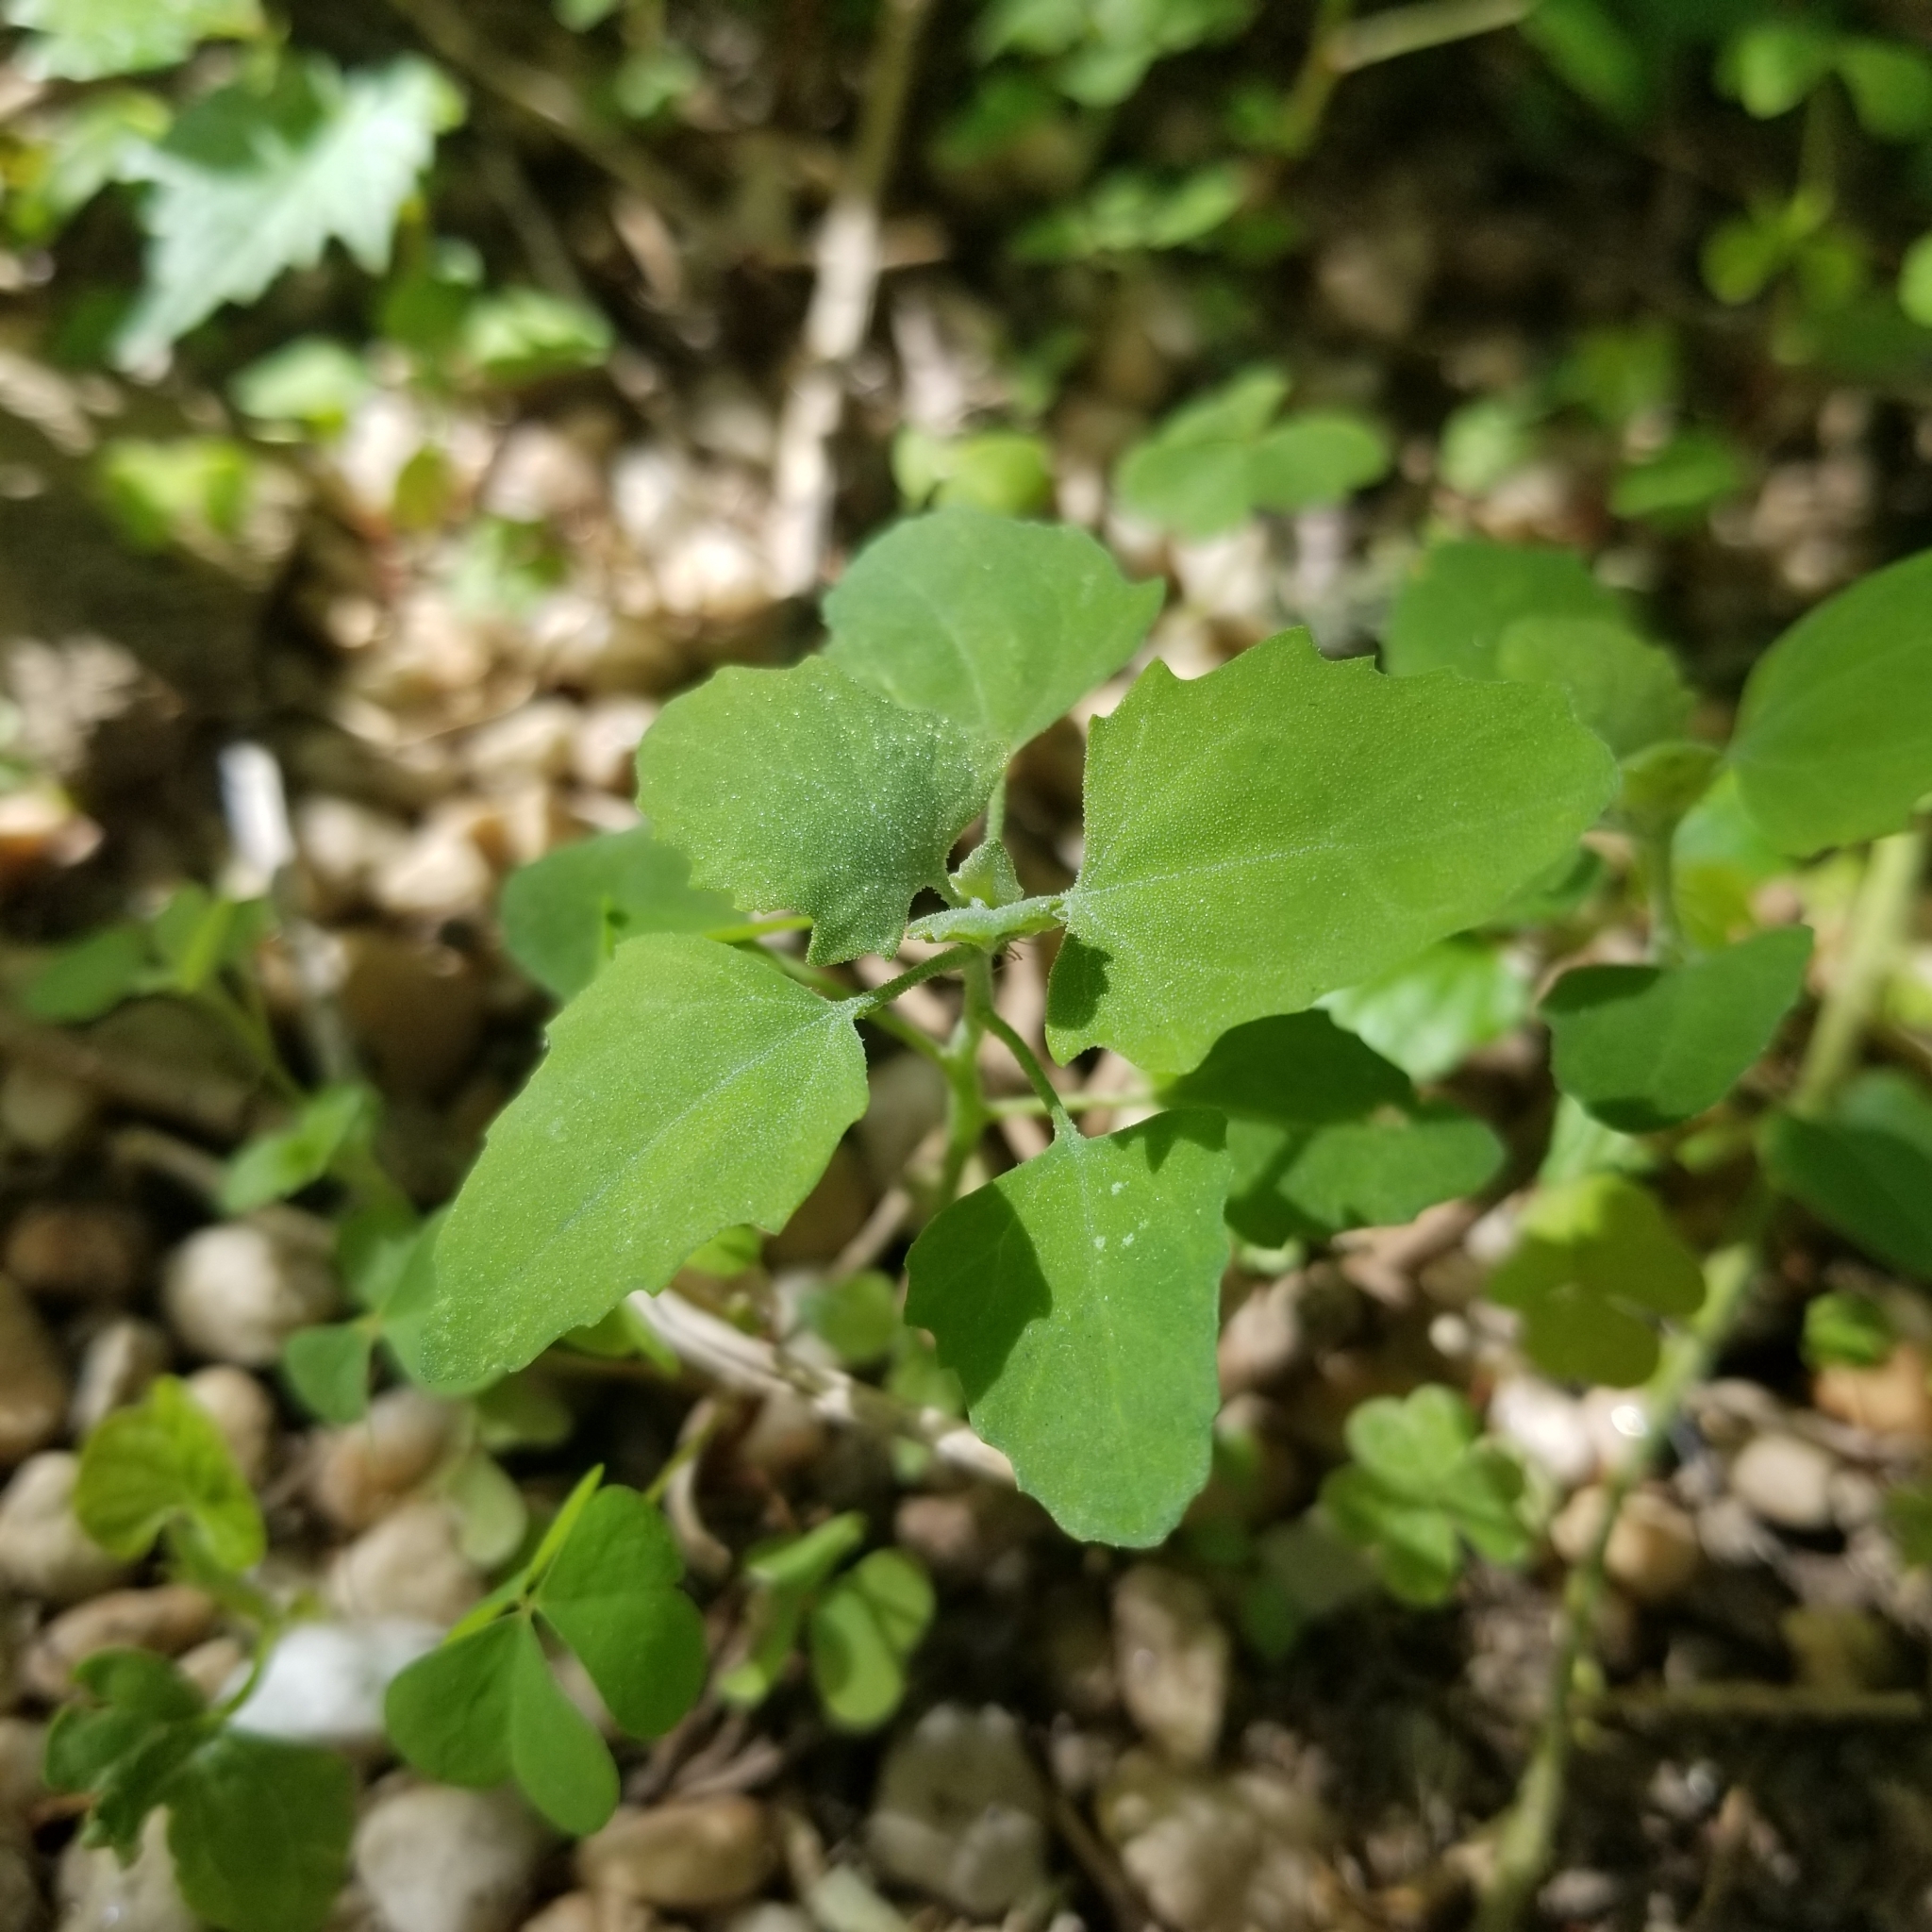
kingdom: Plantae
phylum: Tracheophyta
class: Magnoliopsida
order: Caryophyllales
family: Amaranthaceae
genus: Chenopodium
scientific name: Chenopodium album
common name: Fat-hen
